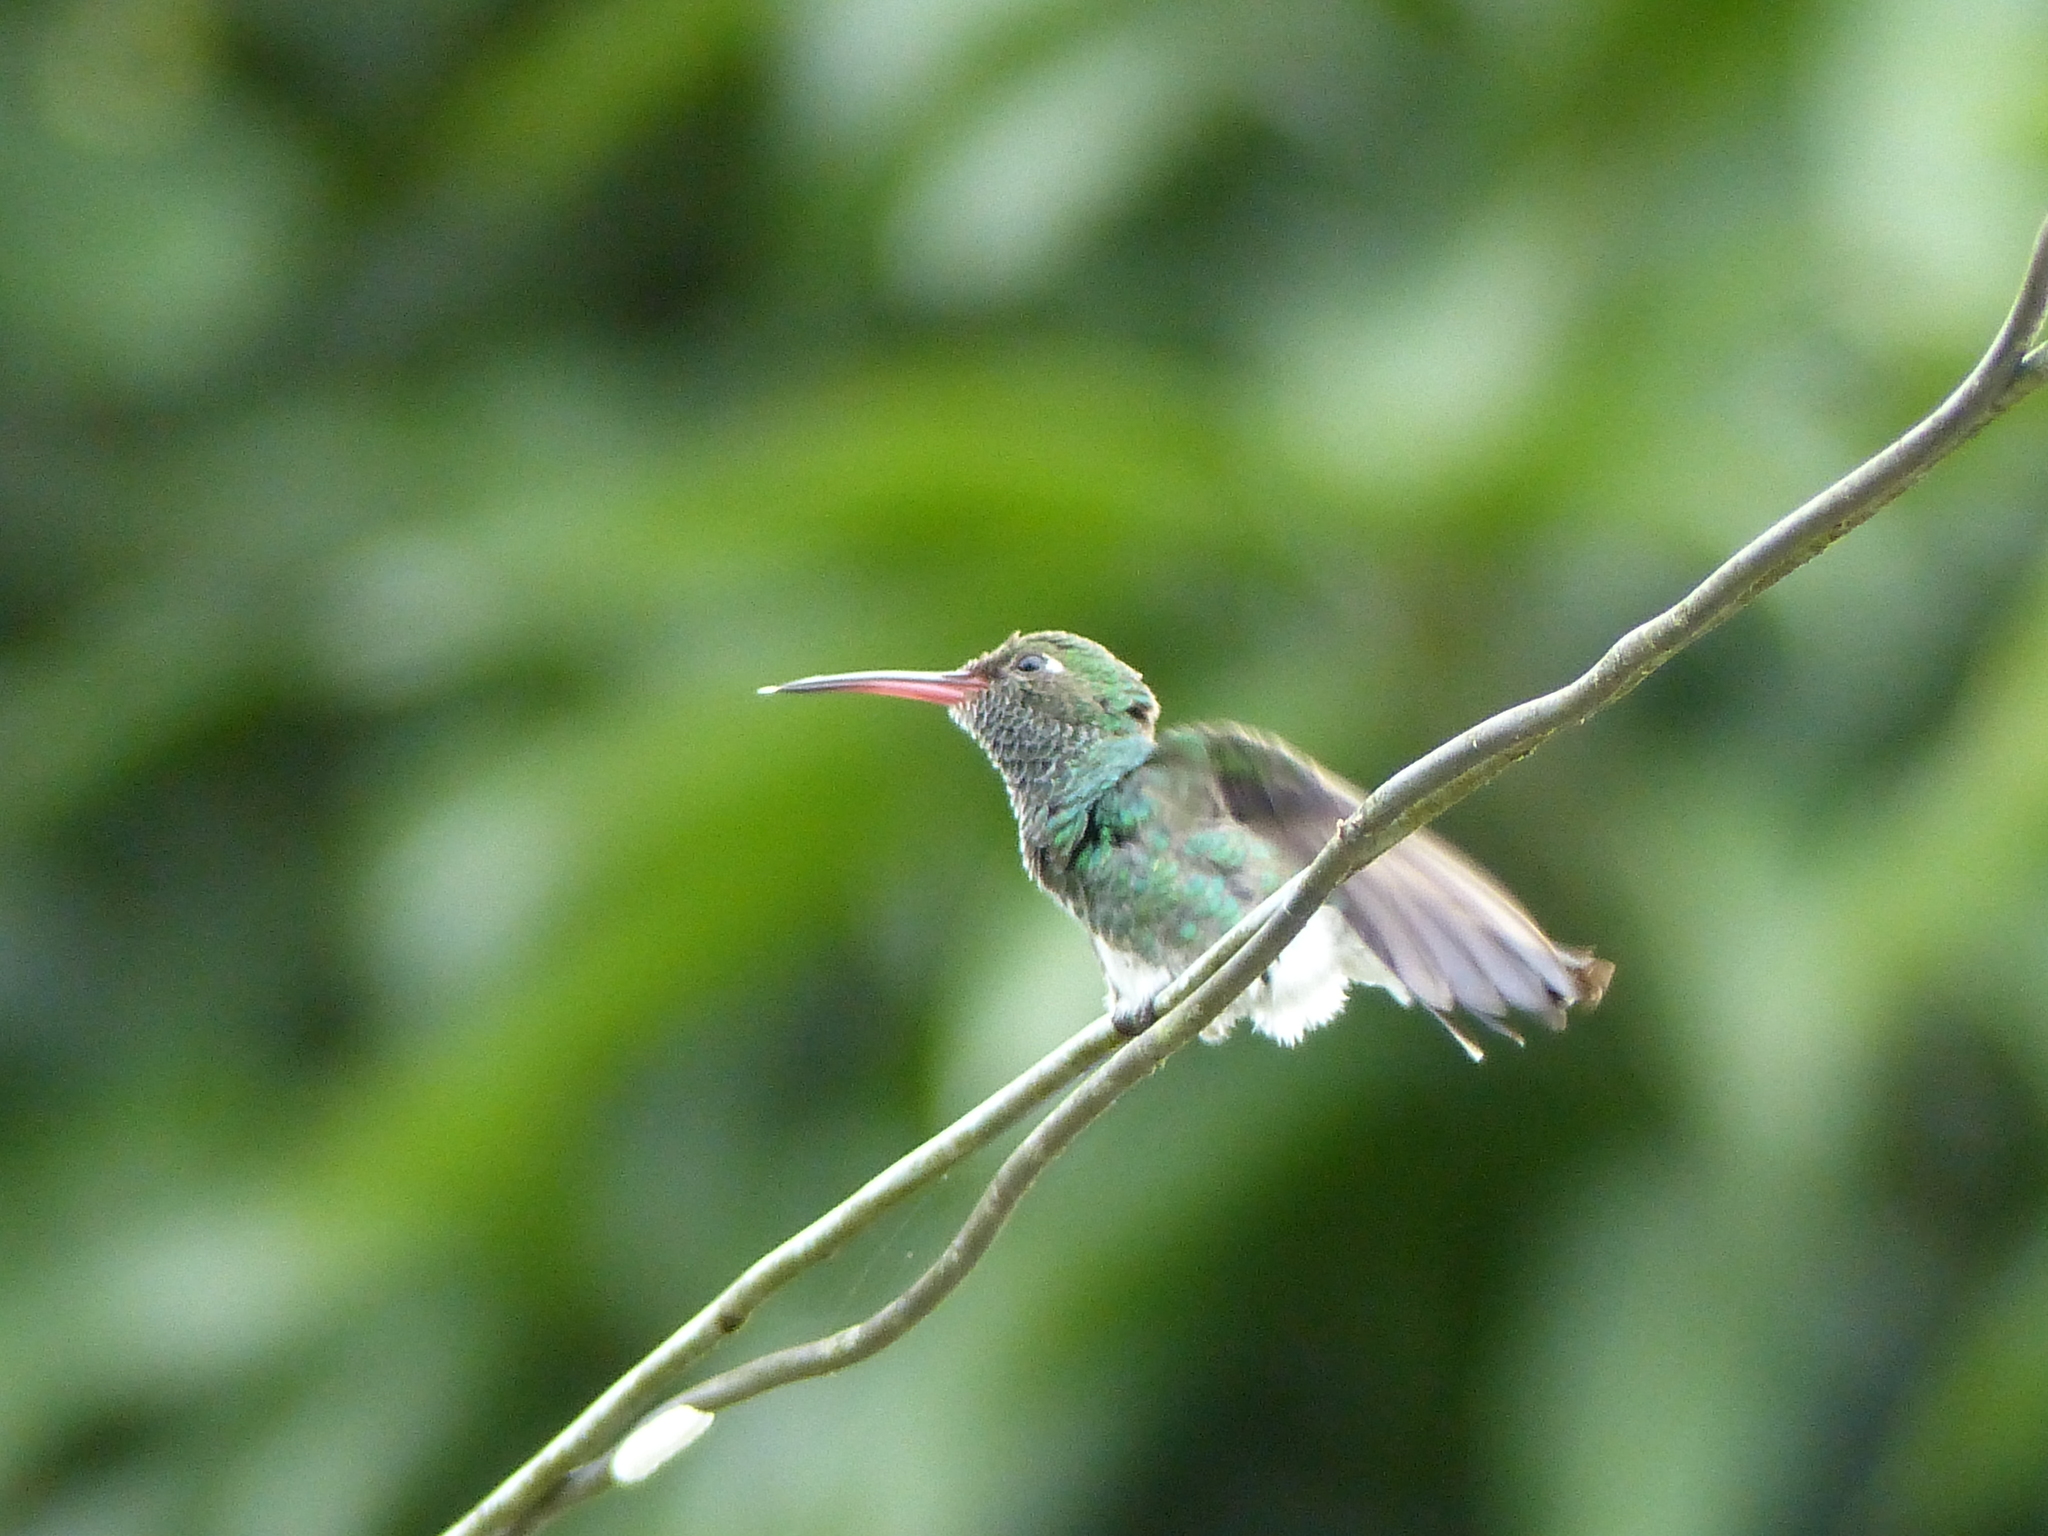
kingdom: Animalia
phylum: Chordata
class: Aves
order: Apodiformes
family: Trochilidae
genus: Chionomesa
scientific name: Chionomesa fimbriata
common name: Glittering-throated emerald
